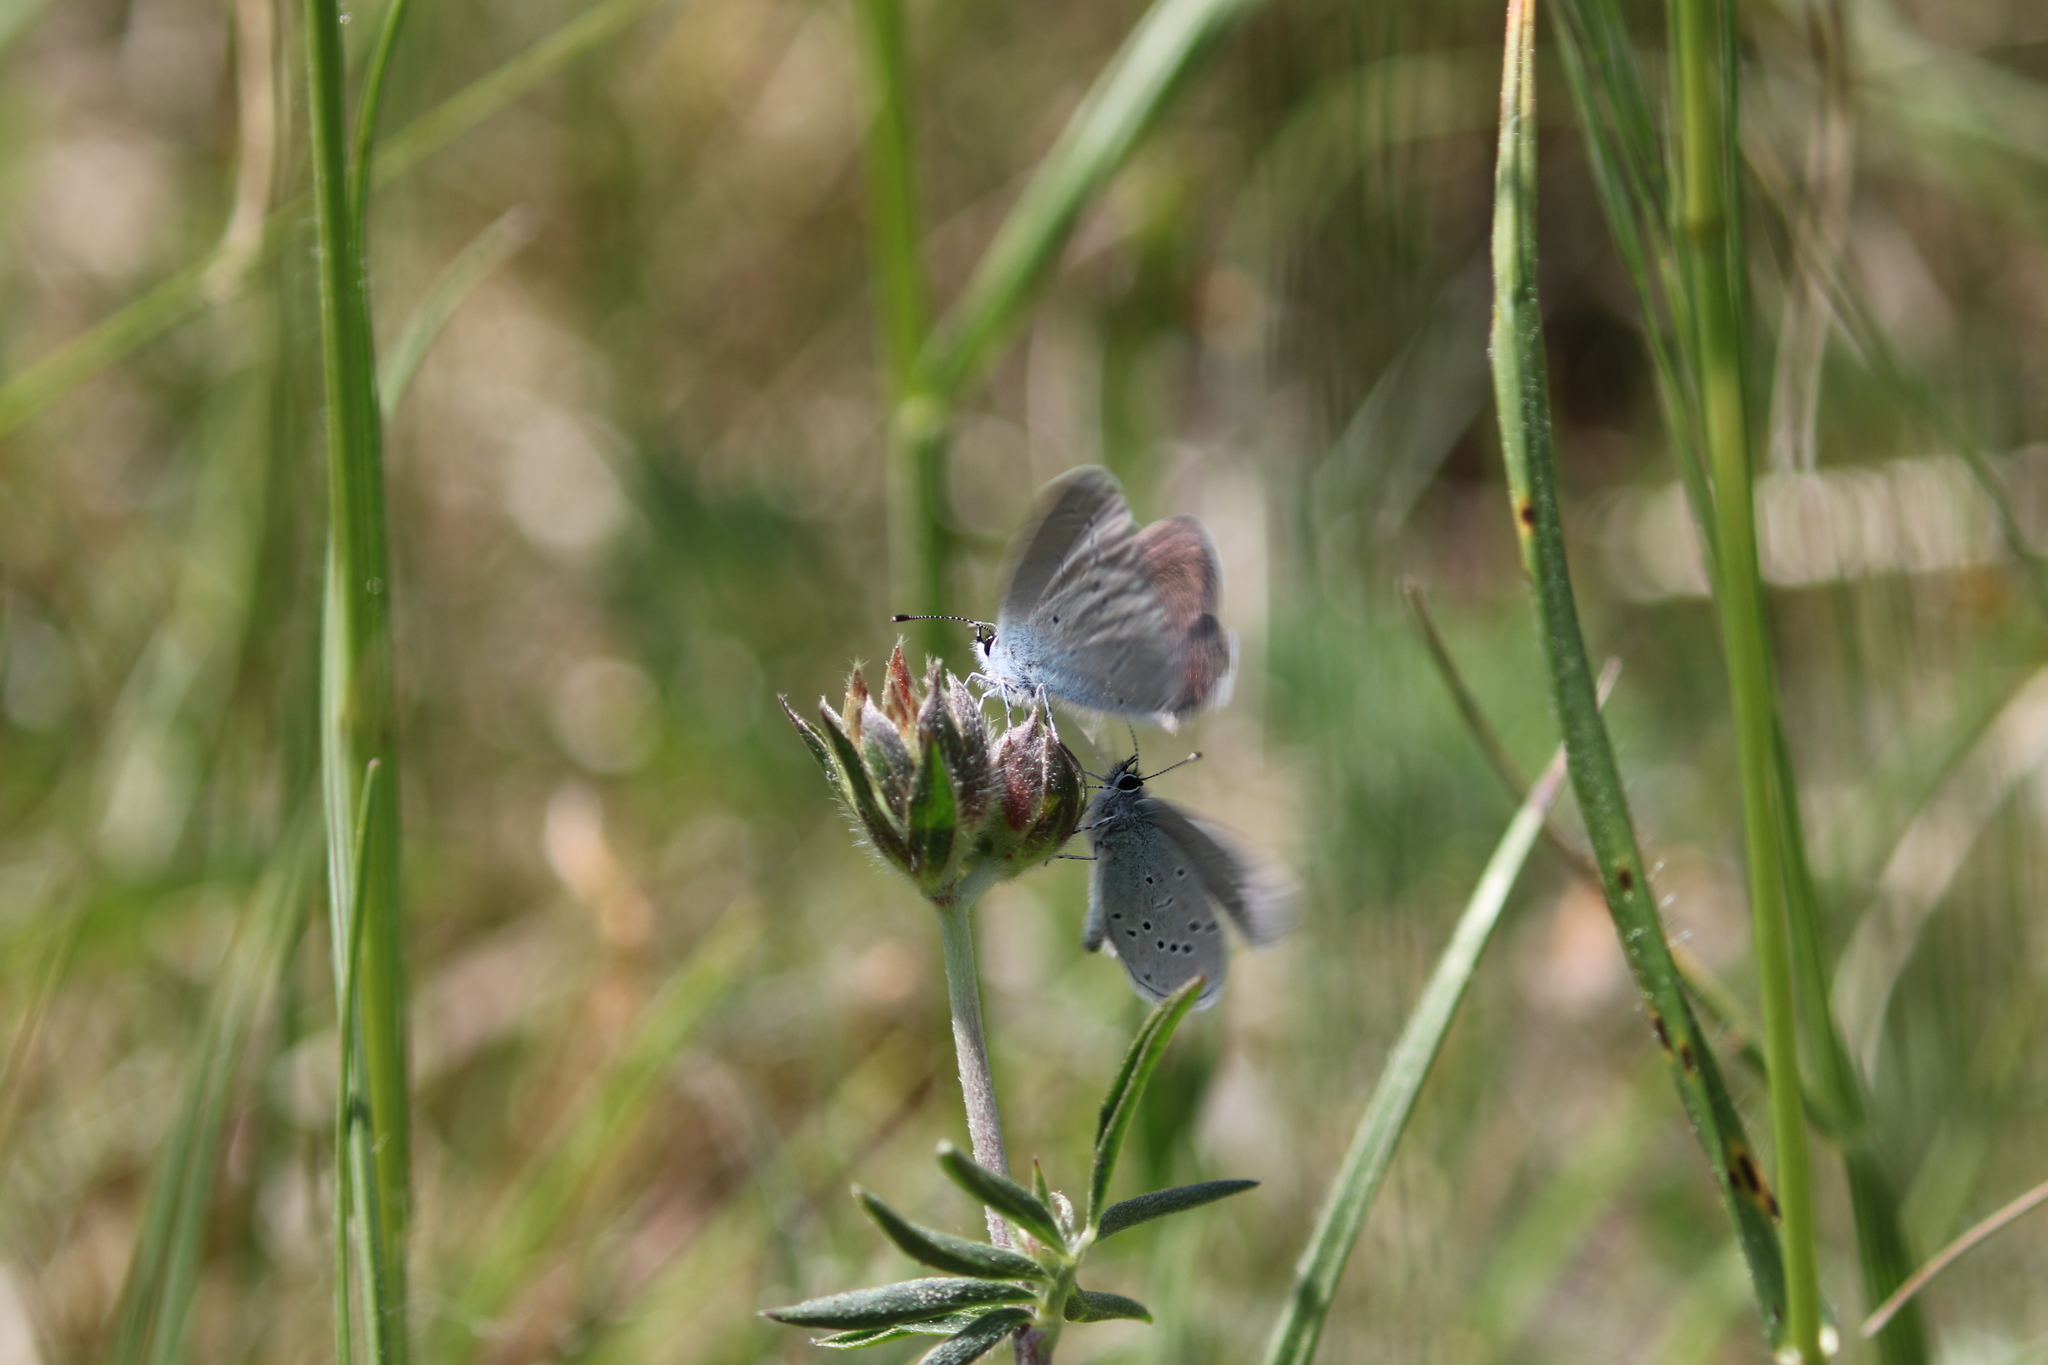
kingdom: Animalia
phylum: Arthropoda
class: Insecta
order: Lepidoptera
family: Lycaenidae
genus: Cupido
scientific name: Cupido minimus
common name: Small blue
